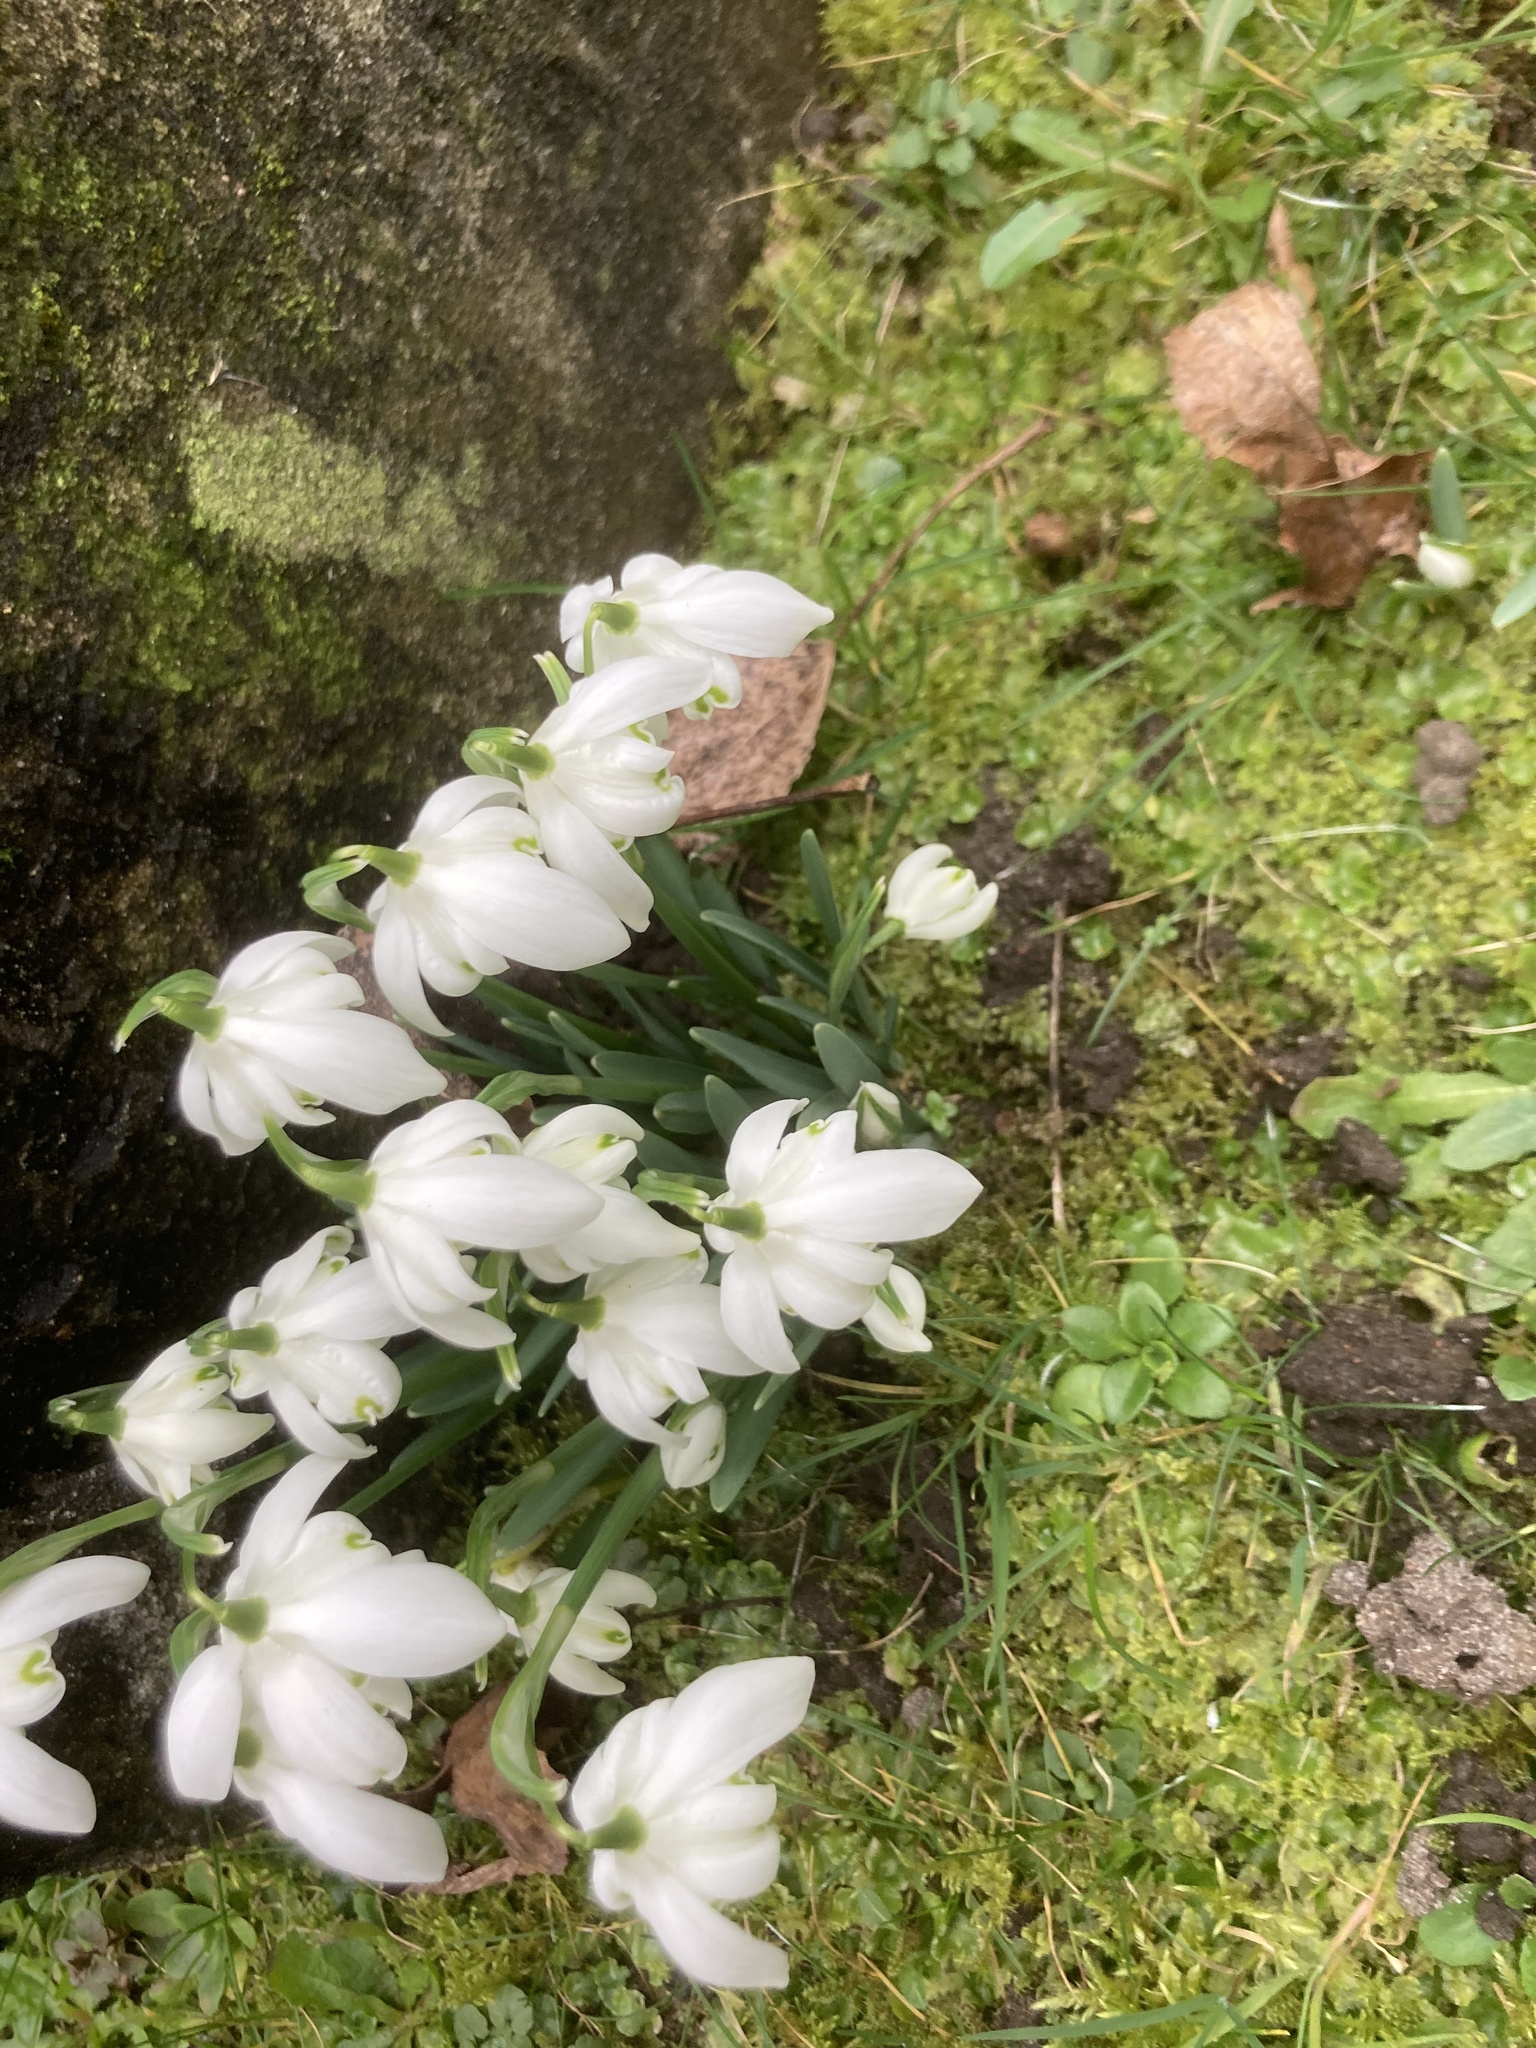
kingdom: Plantae
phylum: Tracheophyta
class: Liliopsida
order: Asparagales
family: Amaryllidaceae
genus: Galanthus
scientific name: Galanthus nivalis
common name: Snowdrop
